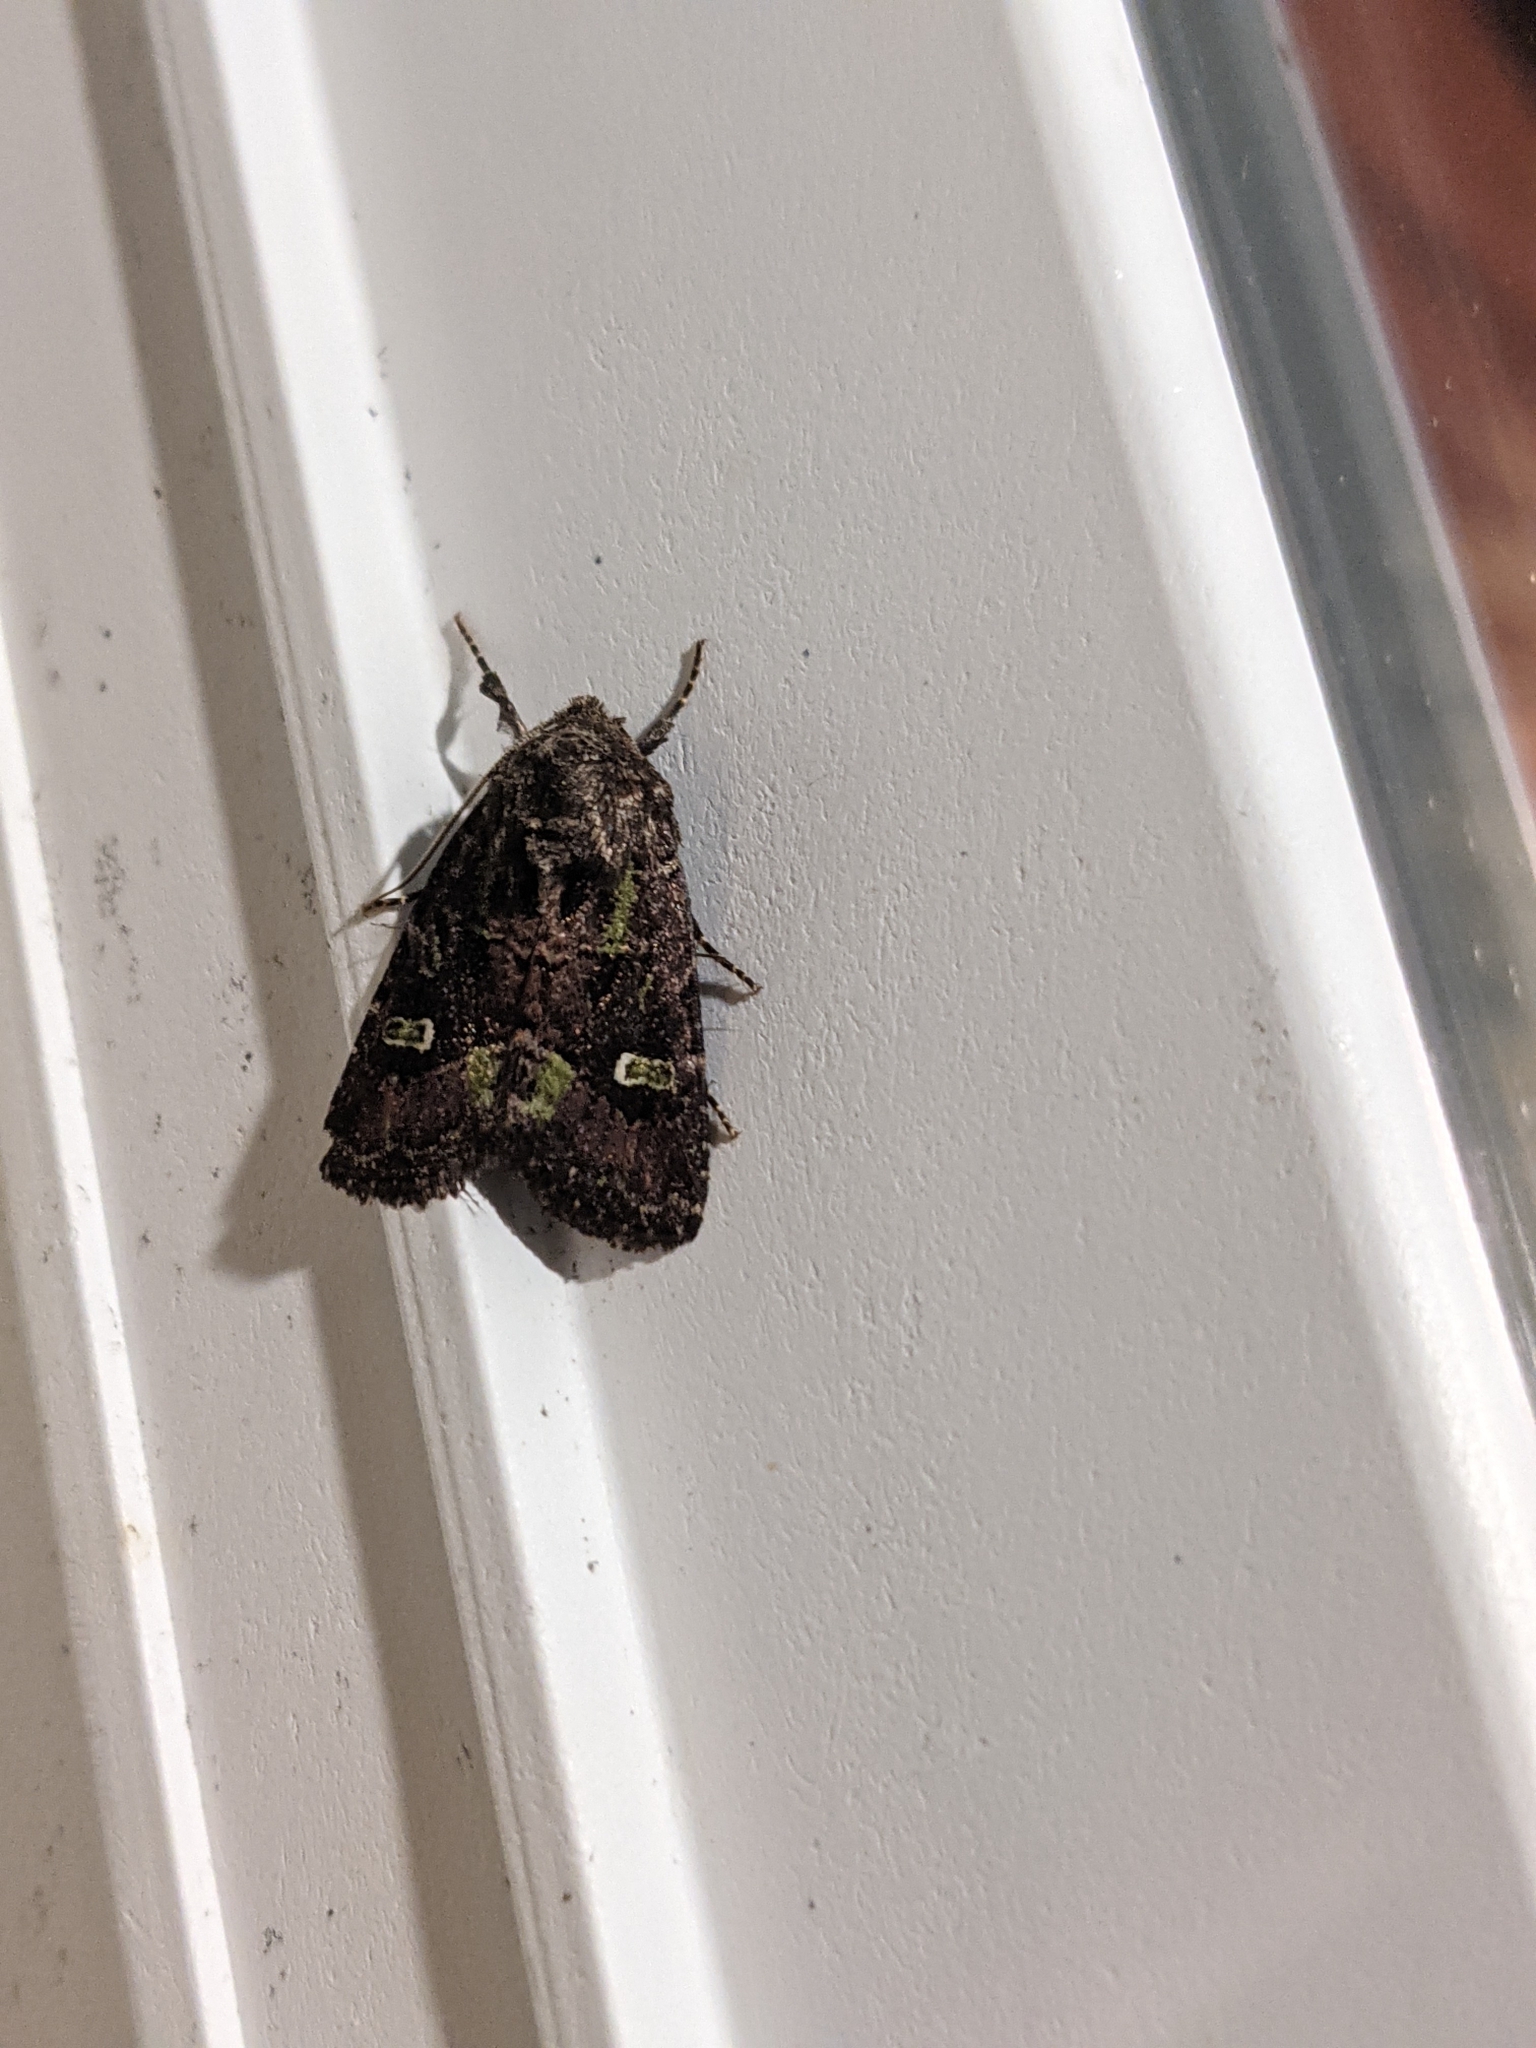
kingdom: Animalia
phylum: Arthropoda
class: Insecta
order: Lepidoptera
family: Noctuidae
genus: Lacinipolia
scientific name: Lacinipolia renigera
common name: Kidney-spotted minor
